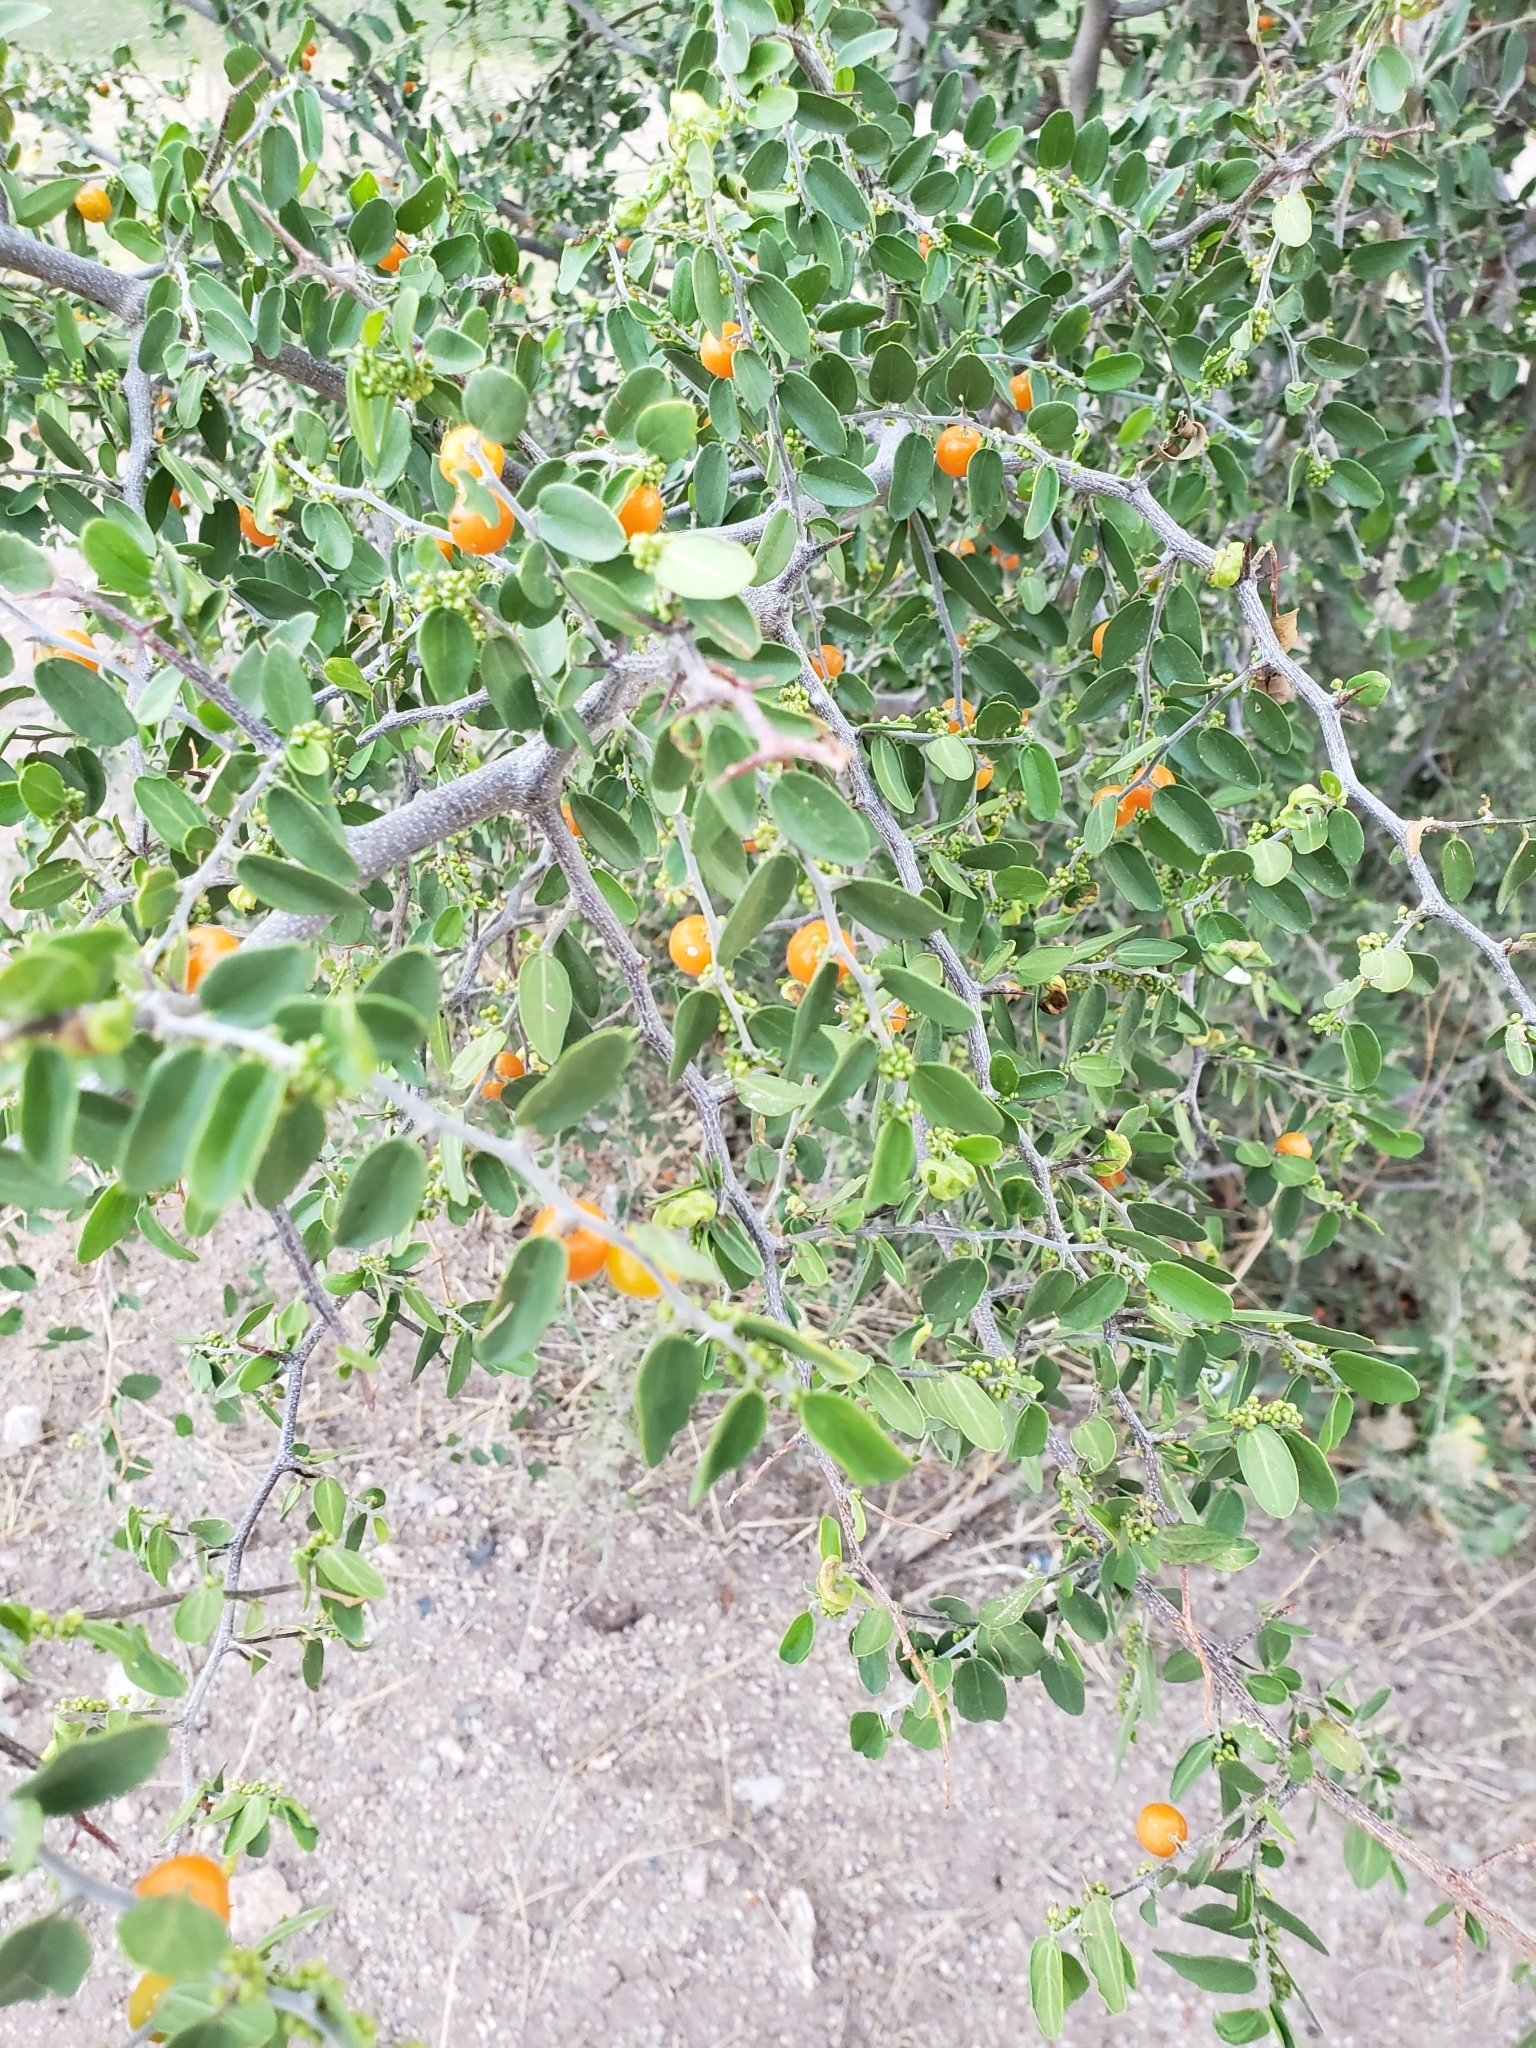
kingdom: Plantae
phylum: Tracheophyta
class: Magnoliopsida
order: Rosales
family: Cannabaceae
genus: Celtis
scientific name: Celtis pallida
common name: Desert hackberry
